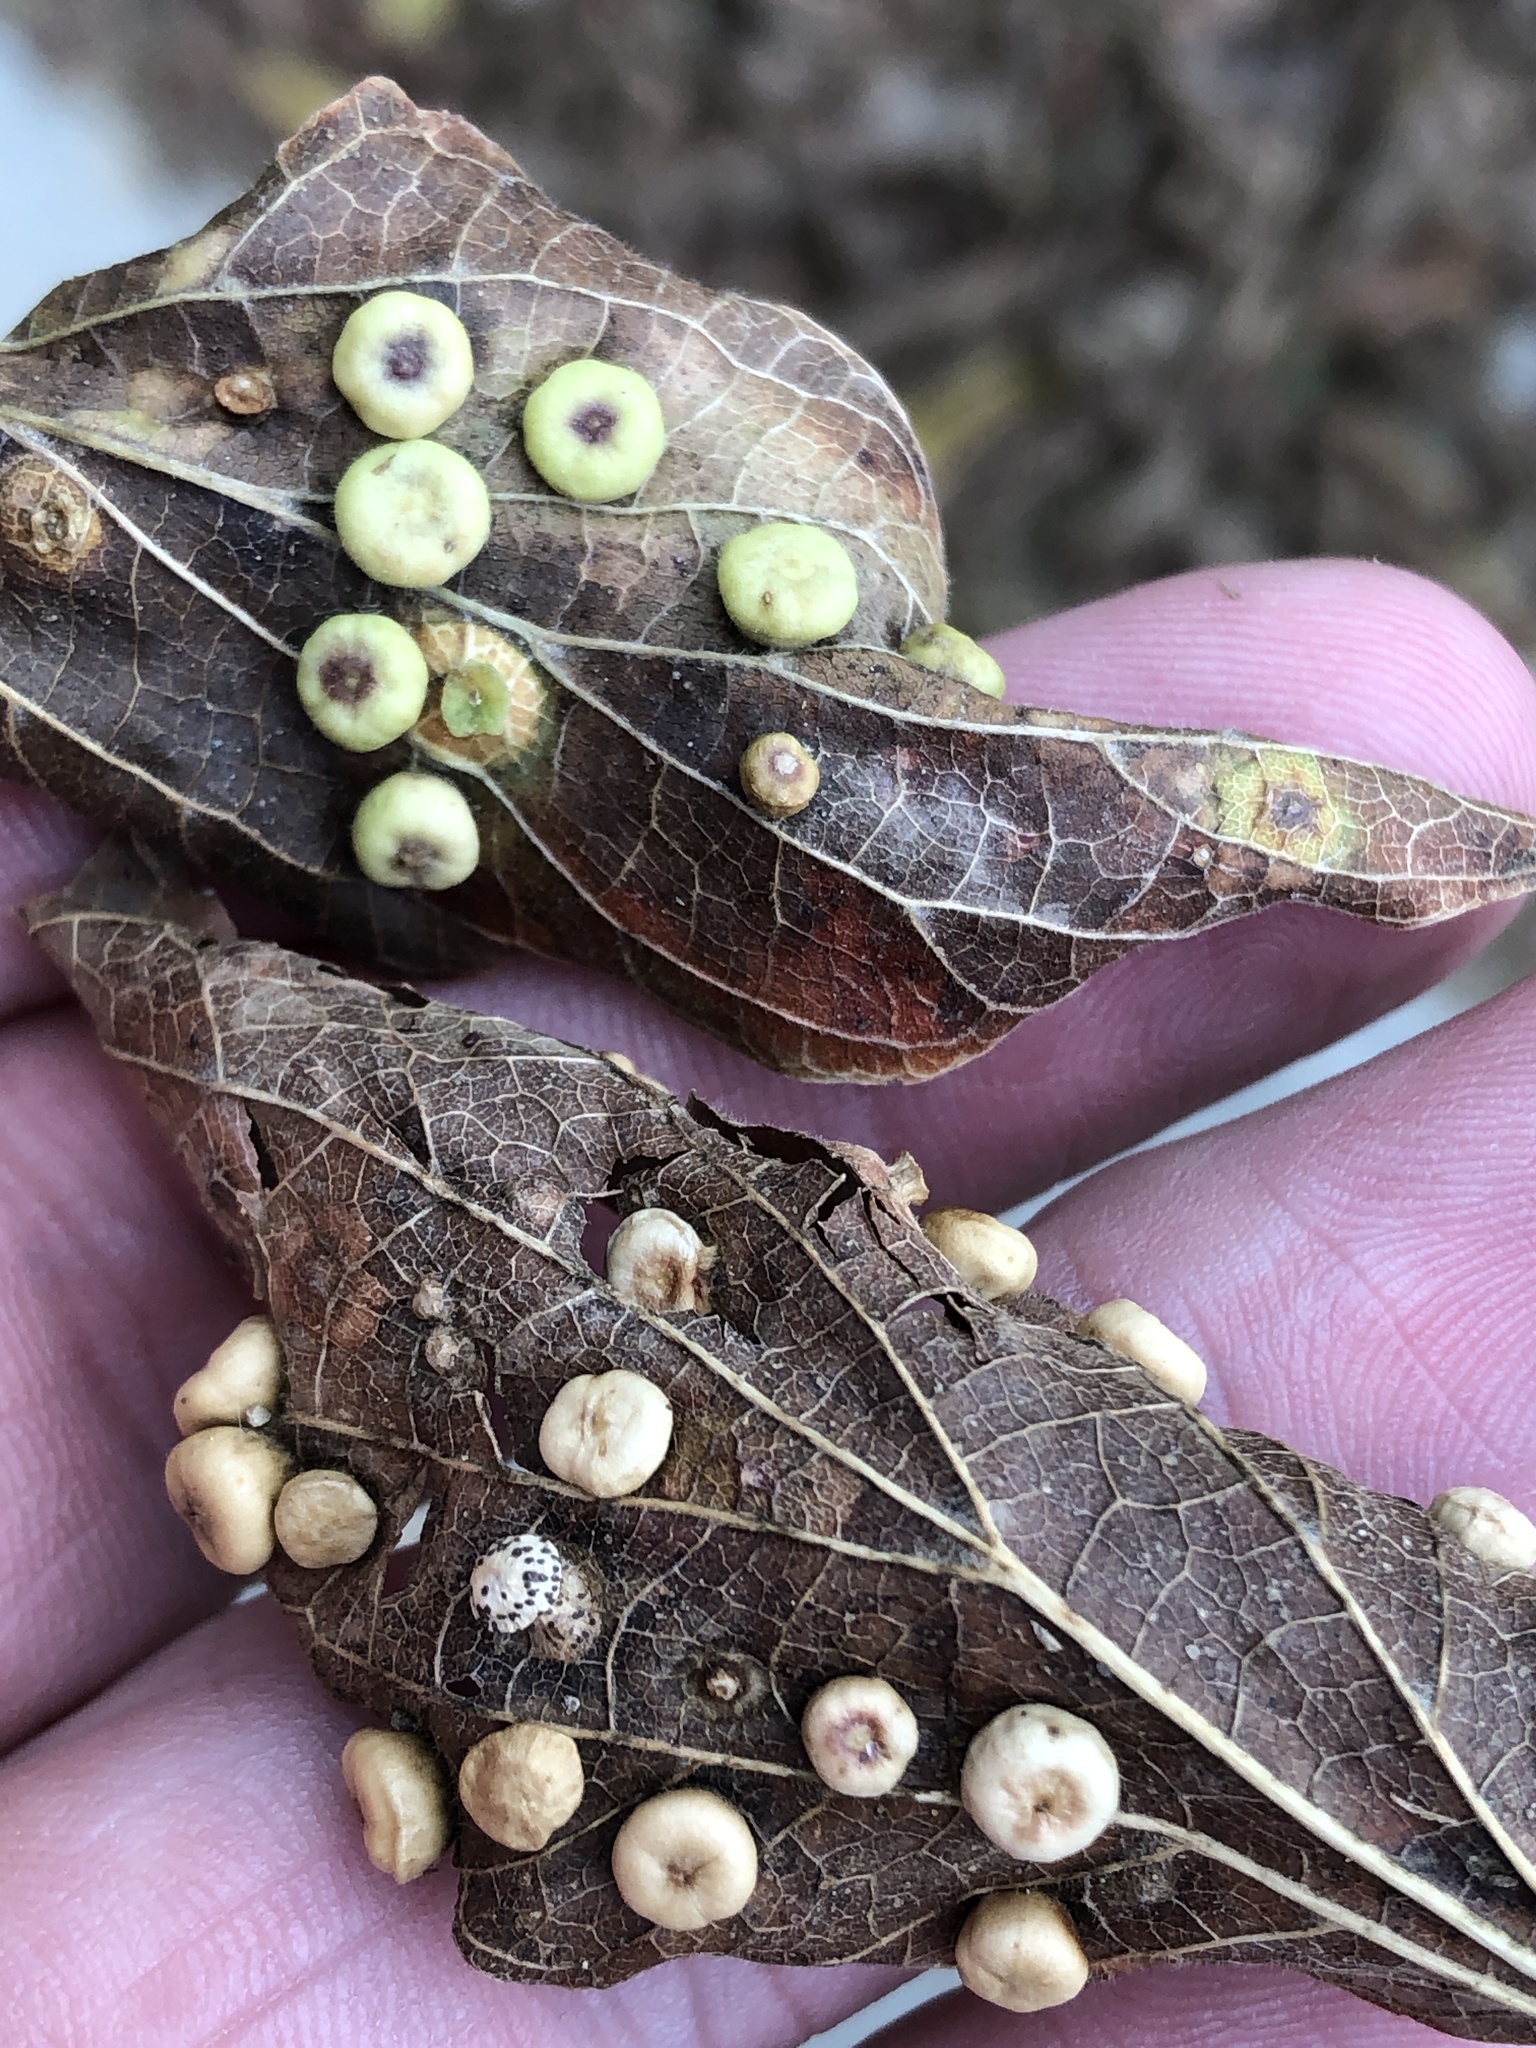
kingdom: Animalia
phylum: Arthropoda
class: Insecta
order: Hemiptera
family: Aphalaridae
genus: Pachypsylla
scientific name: Pachypsylla celtidismamma
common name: Hackberry nipplegall psyllid
